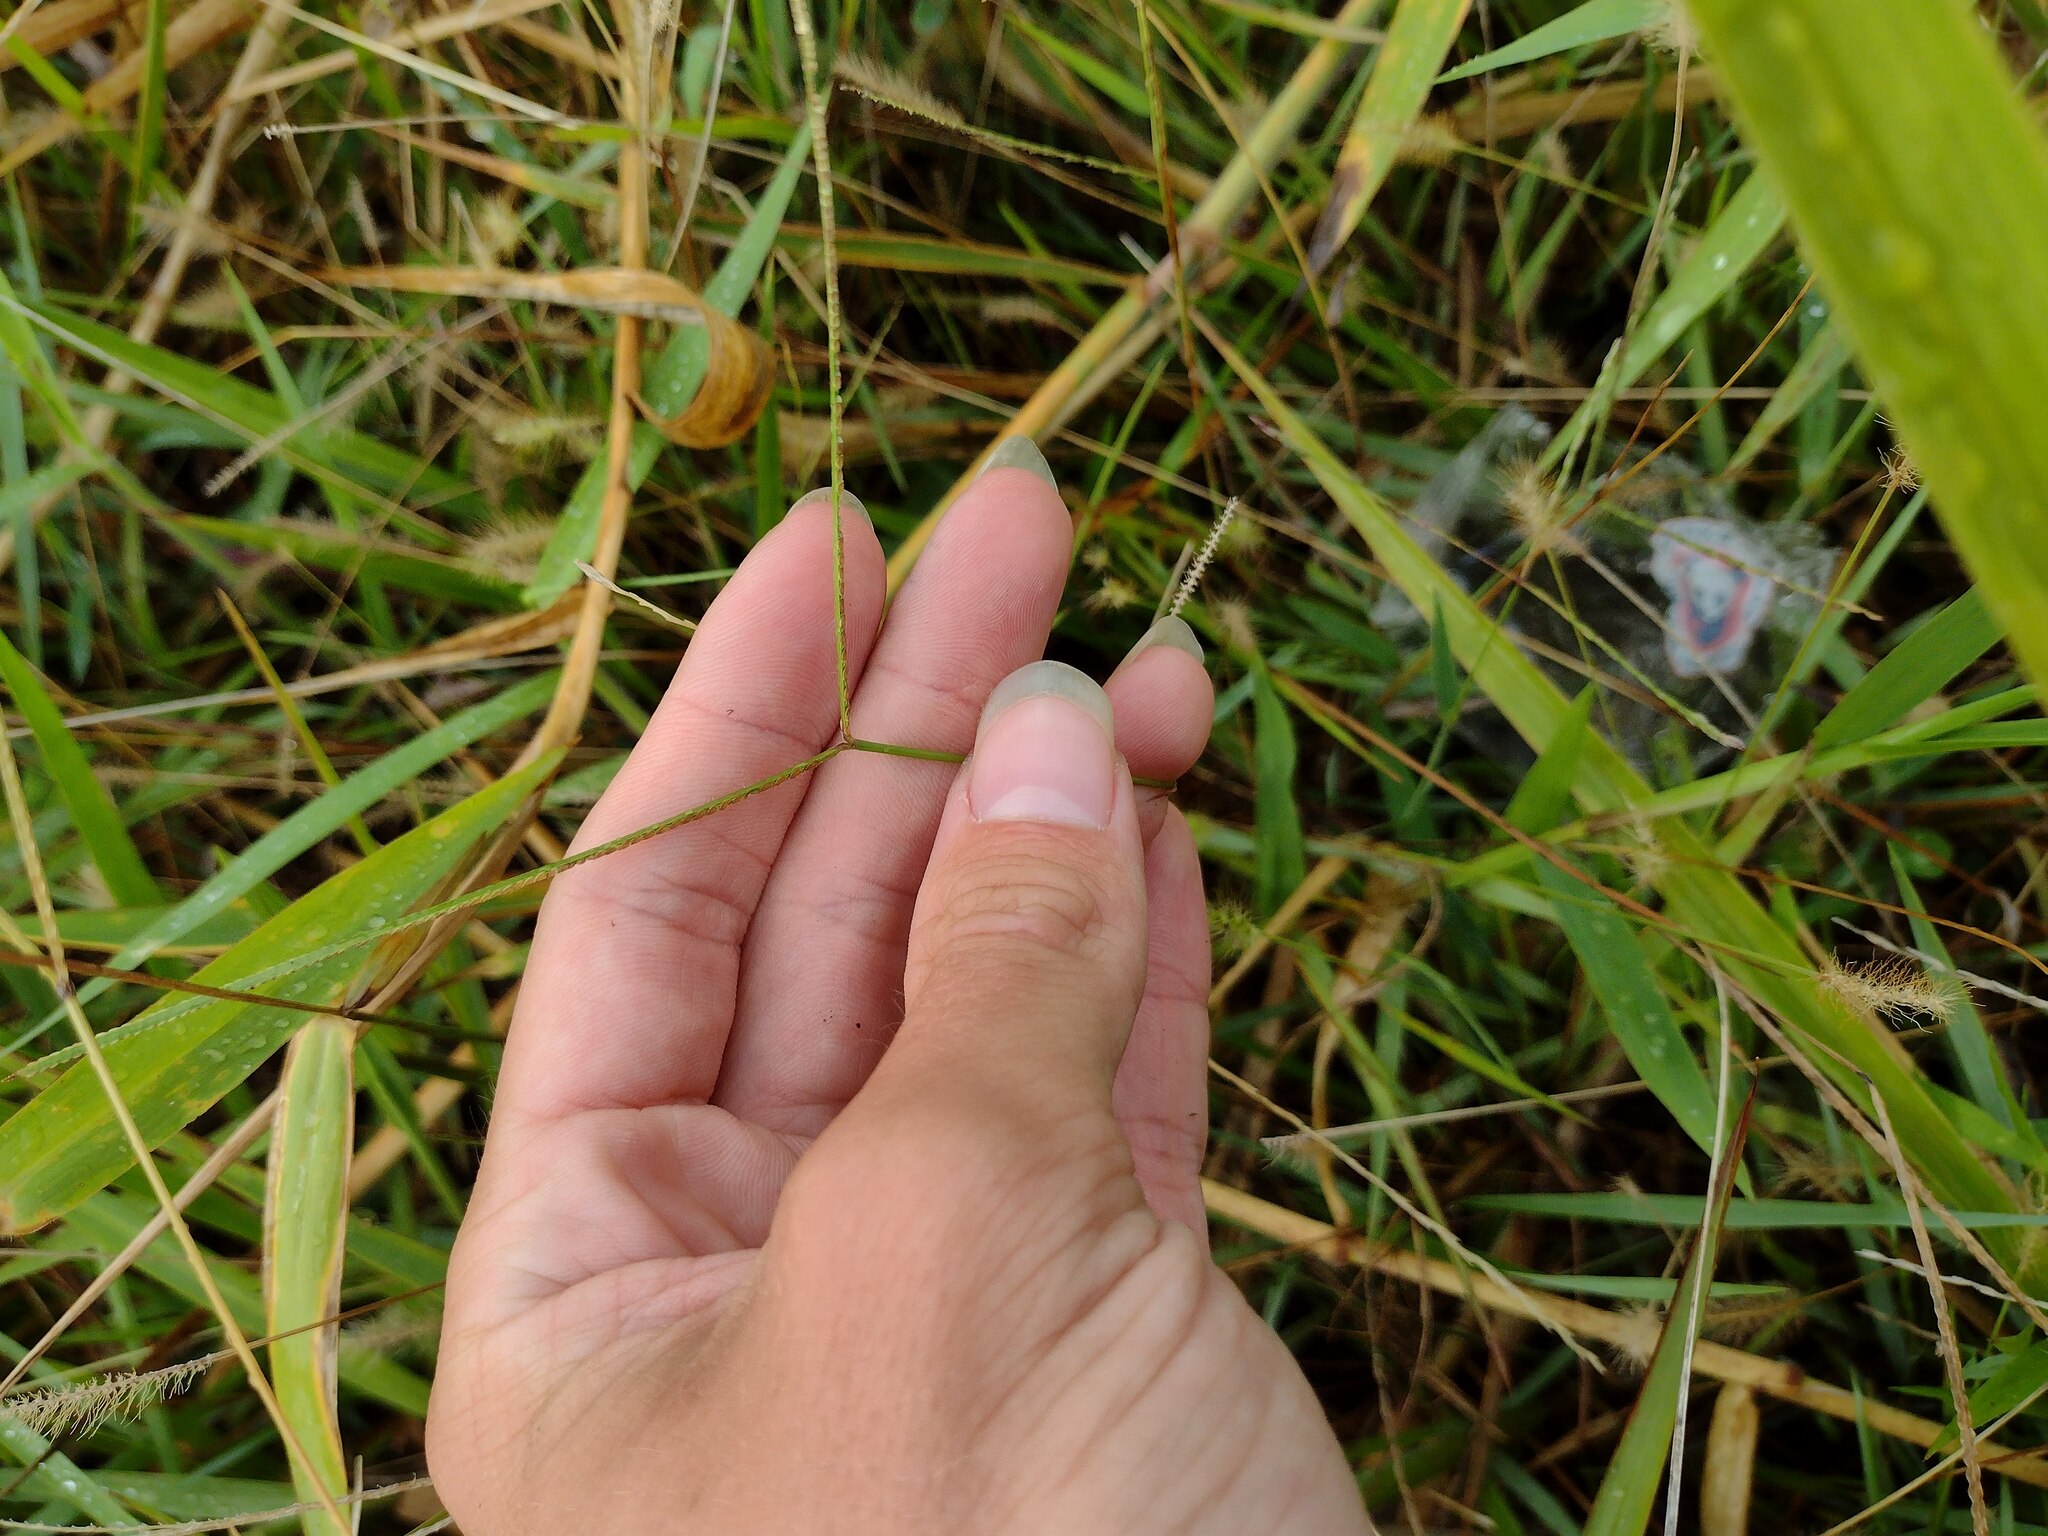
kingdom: Plantae
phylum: Tracheophyta
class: Liliopsida
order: Poales
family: Poaceae
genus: Paspalum
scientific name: Paspalum conjugatum
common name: Hilograss
